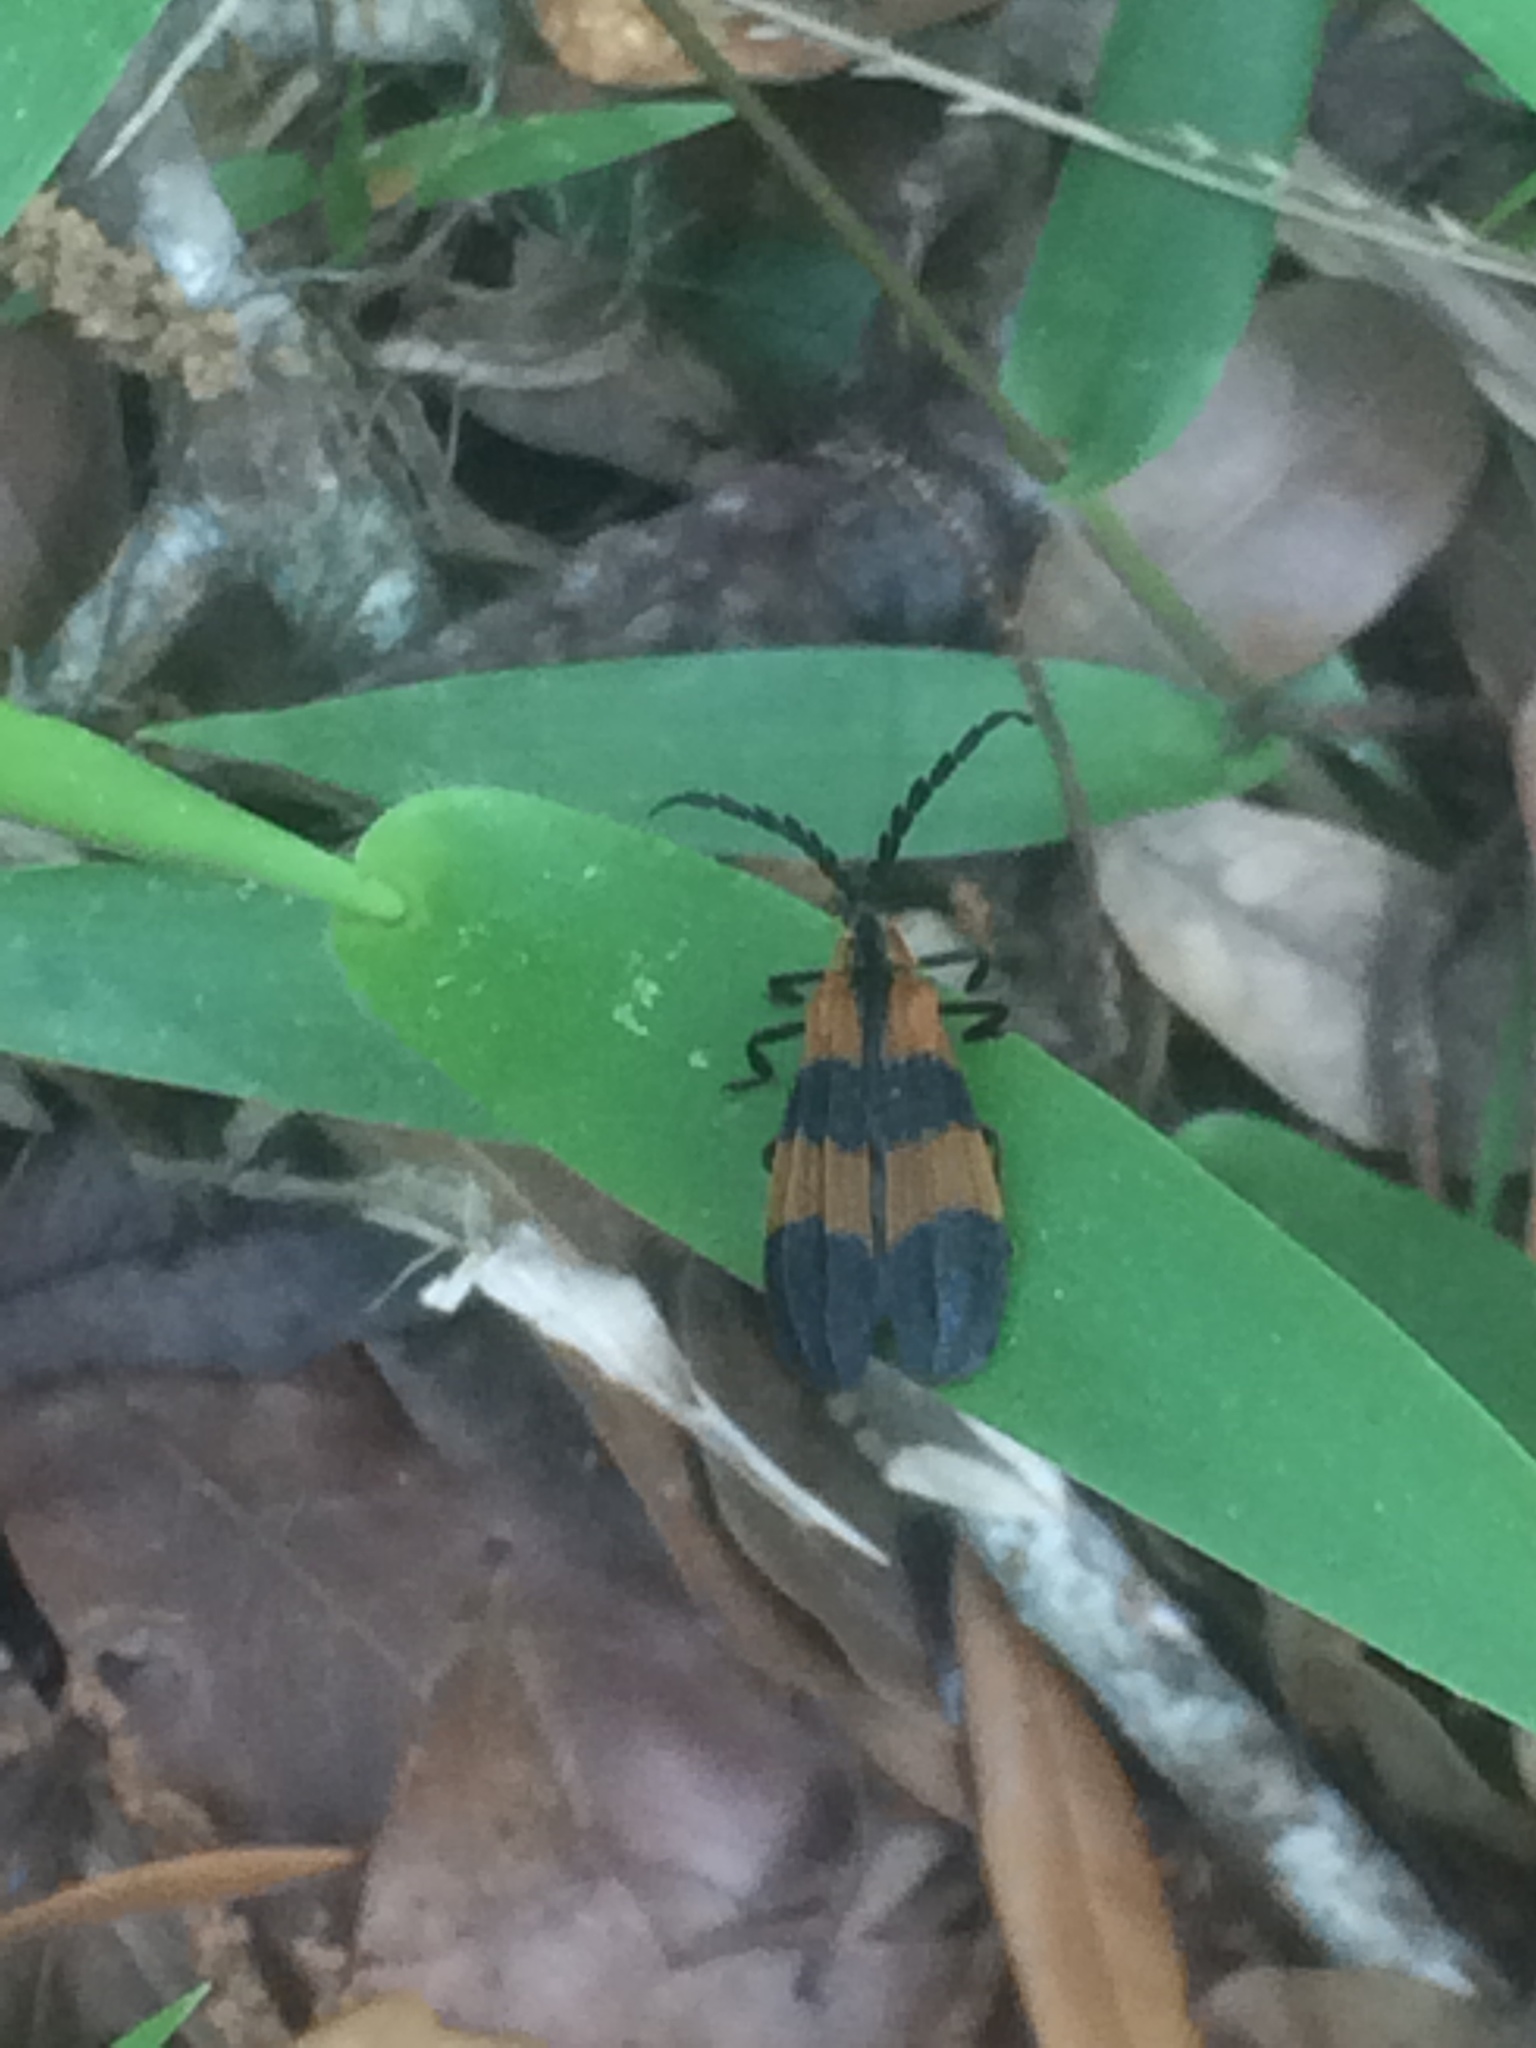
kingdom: Animalia
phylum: Arthropoda
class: Insecta
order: Coleoptera
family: Lycidae
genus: Calopteron
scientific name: Calopteron discrepans
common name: Banded net-winged beetle
